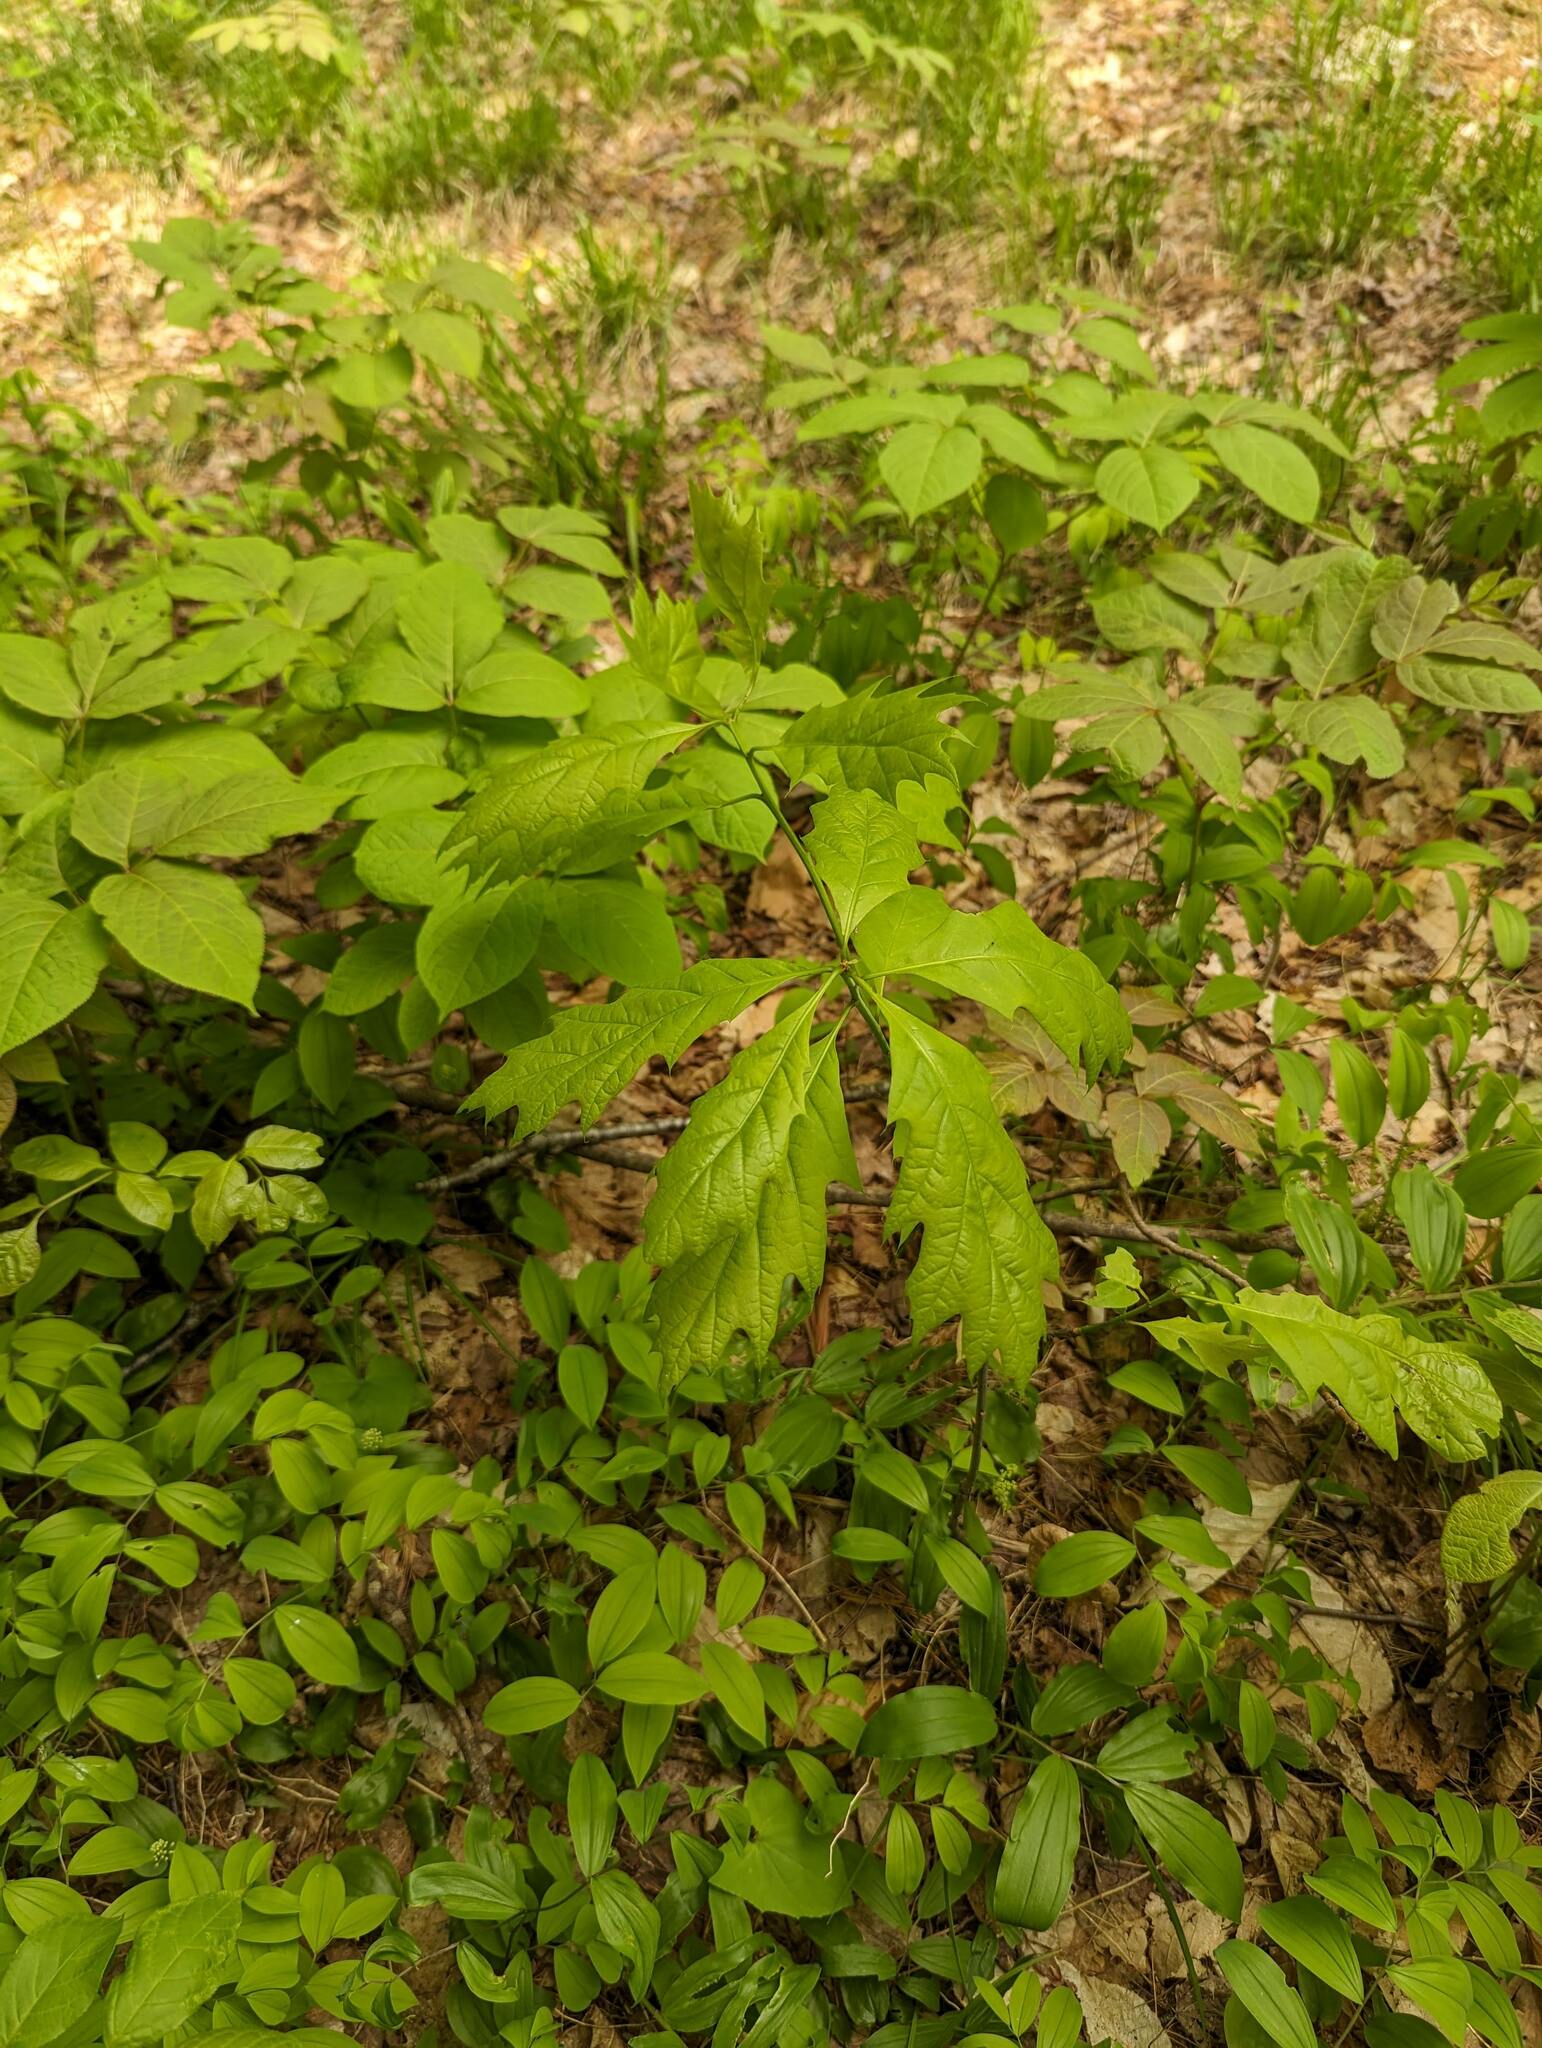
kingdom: Plantae
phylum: Tracheophyta
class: Magnoliopsida
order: Fagales
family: Fagaceae
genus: Quercus
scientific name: Quercus rubra
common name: Red oak
